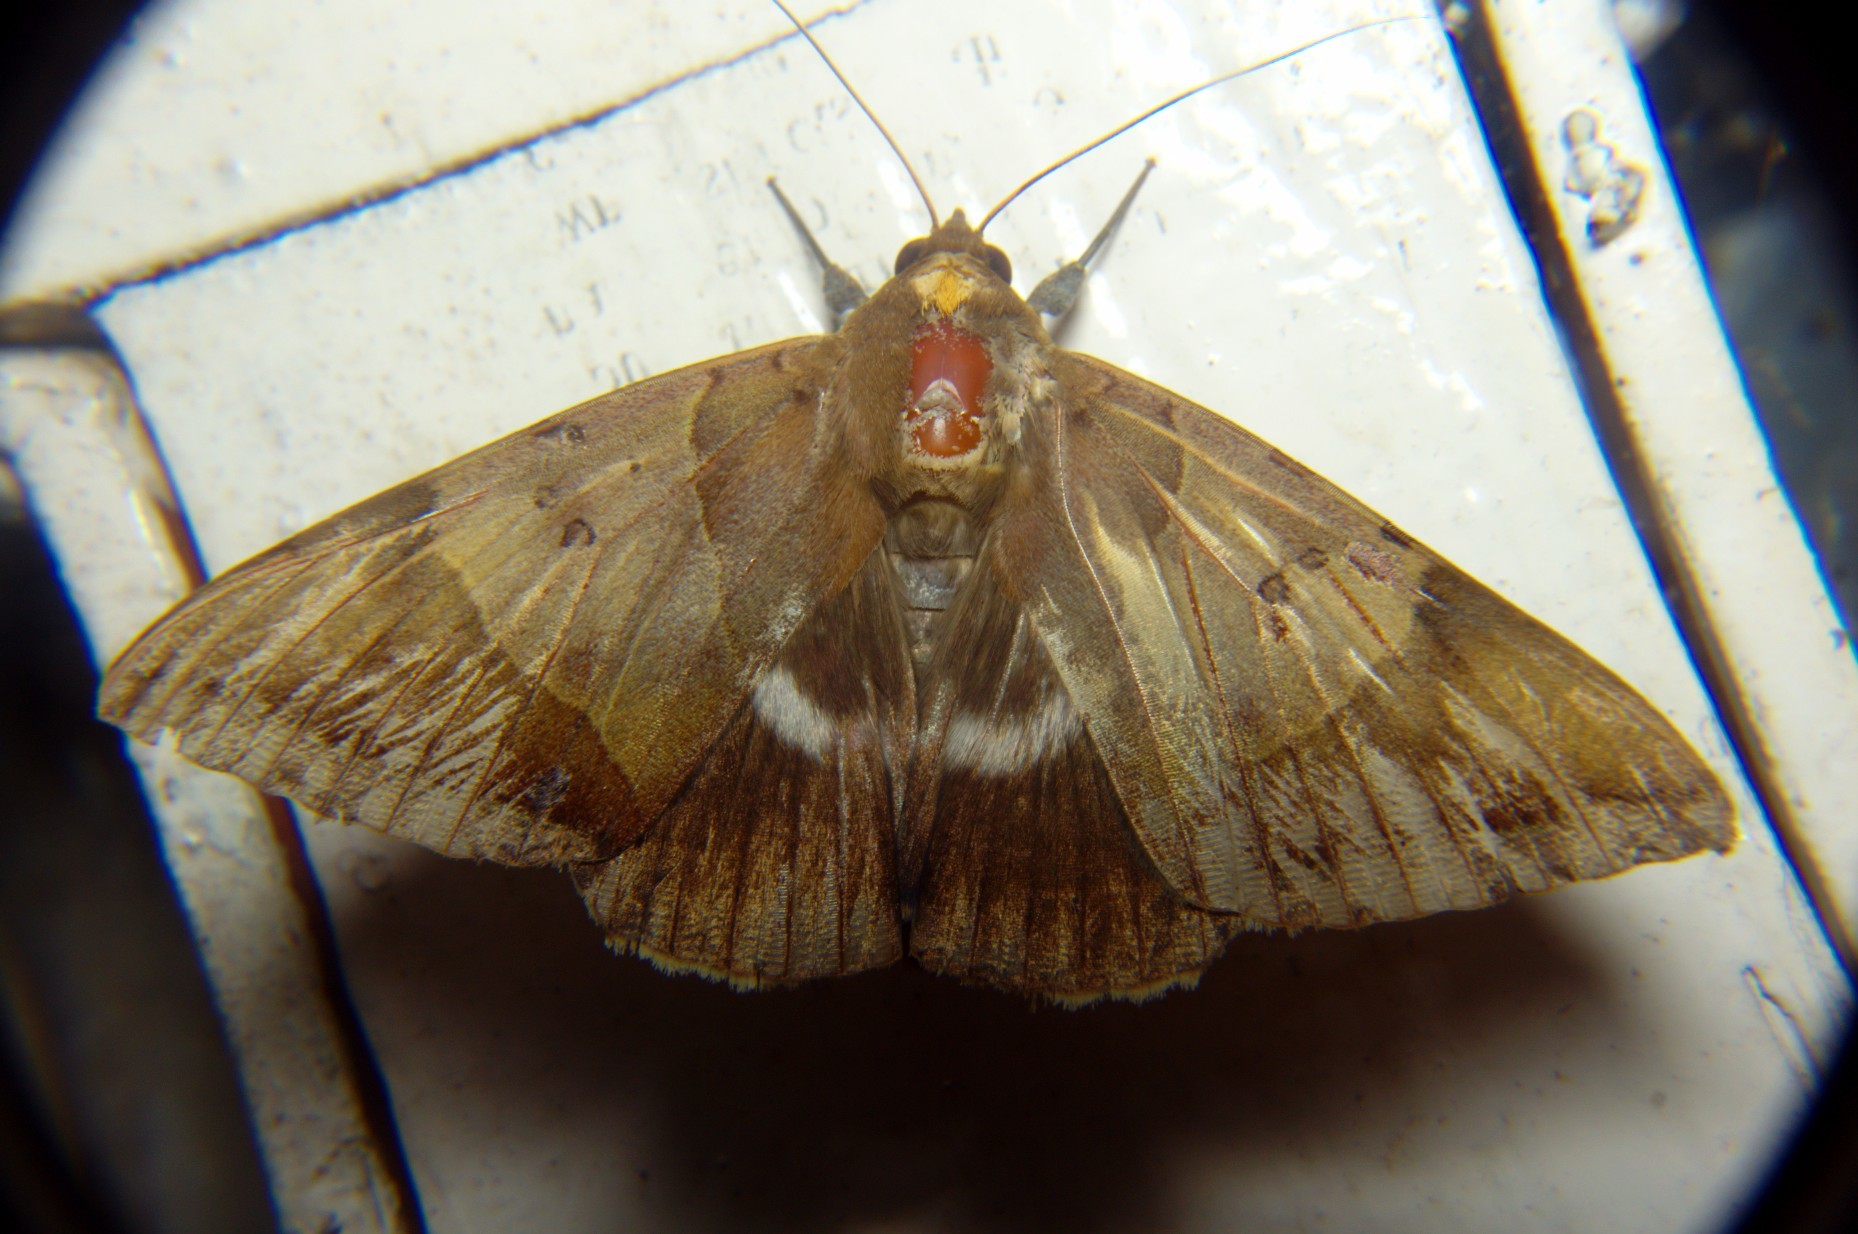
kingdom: Animalia
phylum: Arthropoda
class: Insecta
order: Lepidoptera
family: Erebidae
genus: Artena
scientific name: Artena dotata
